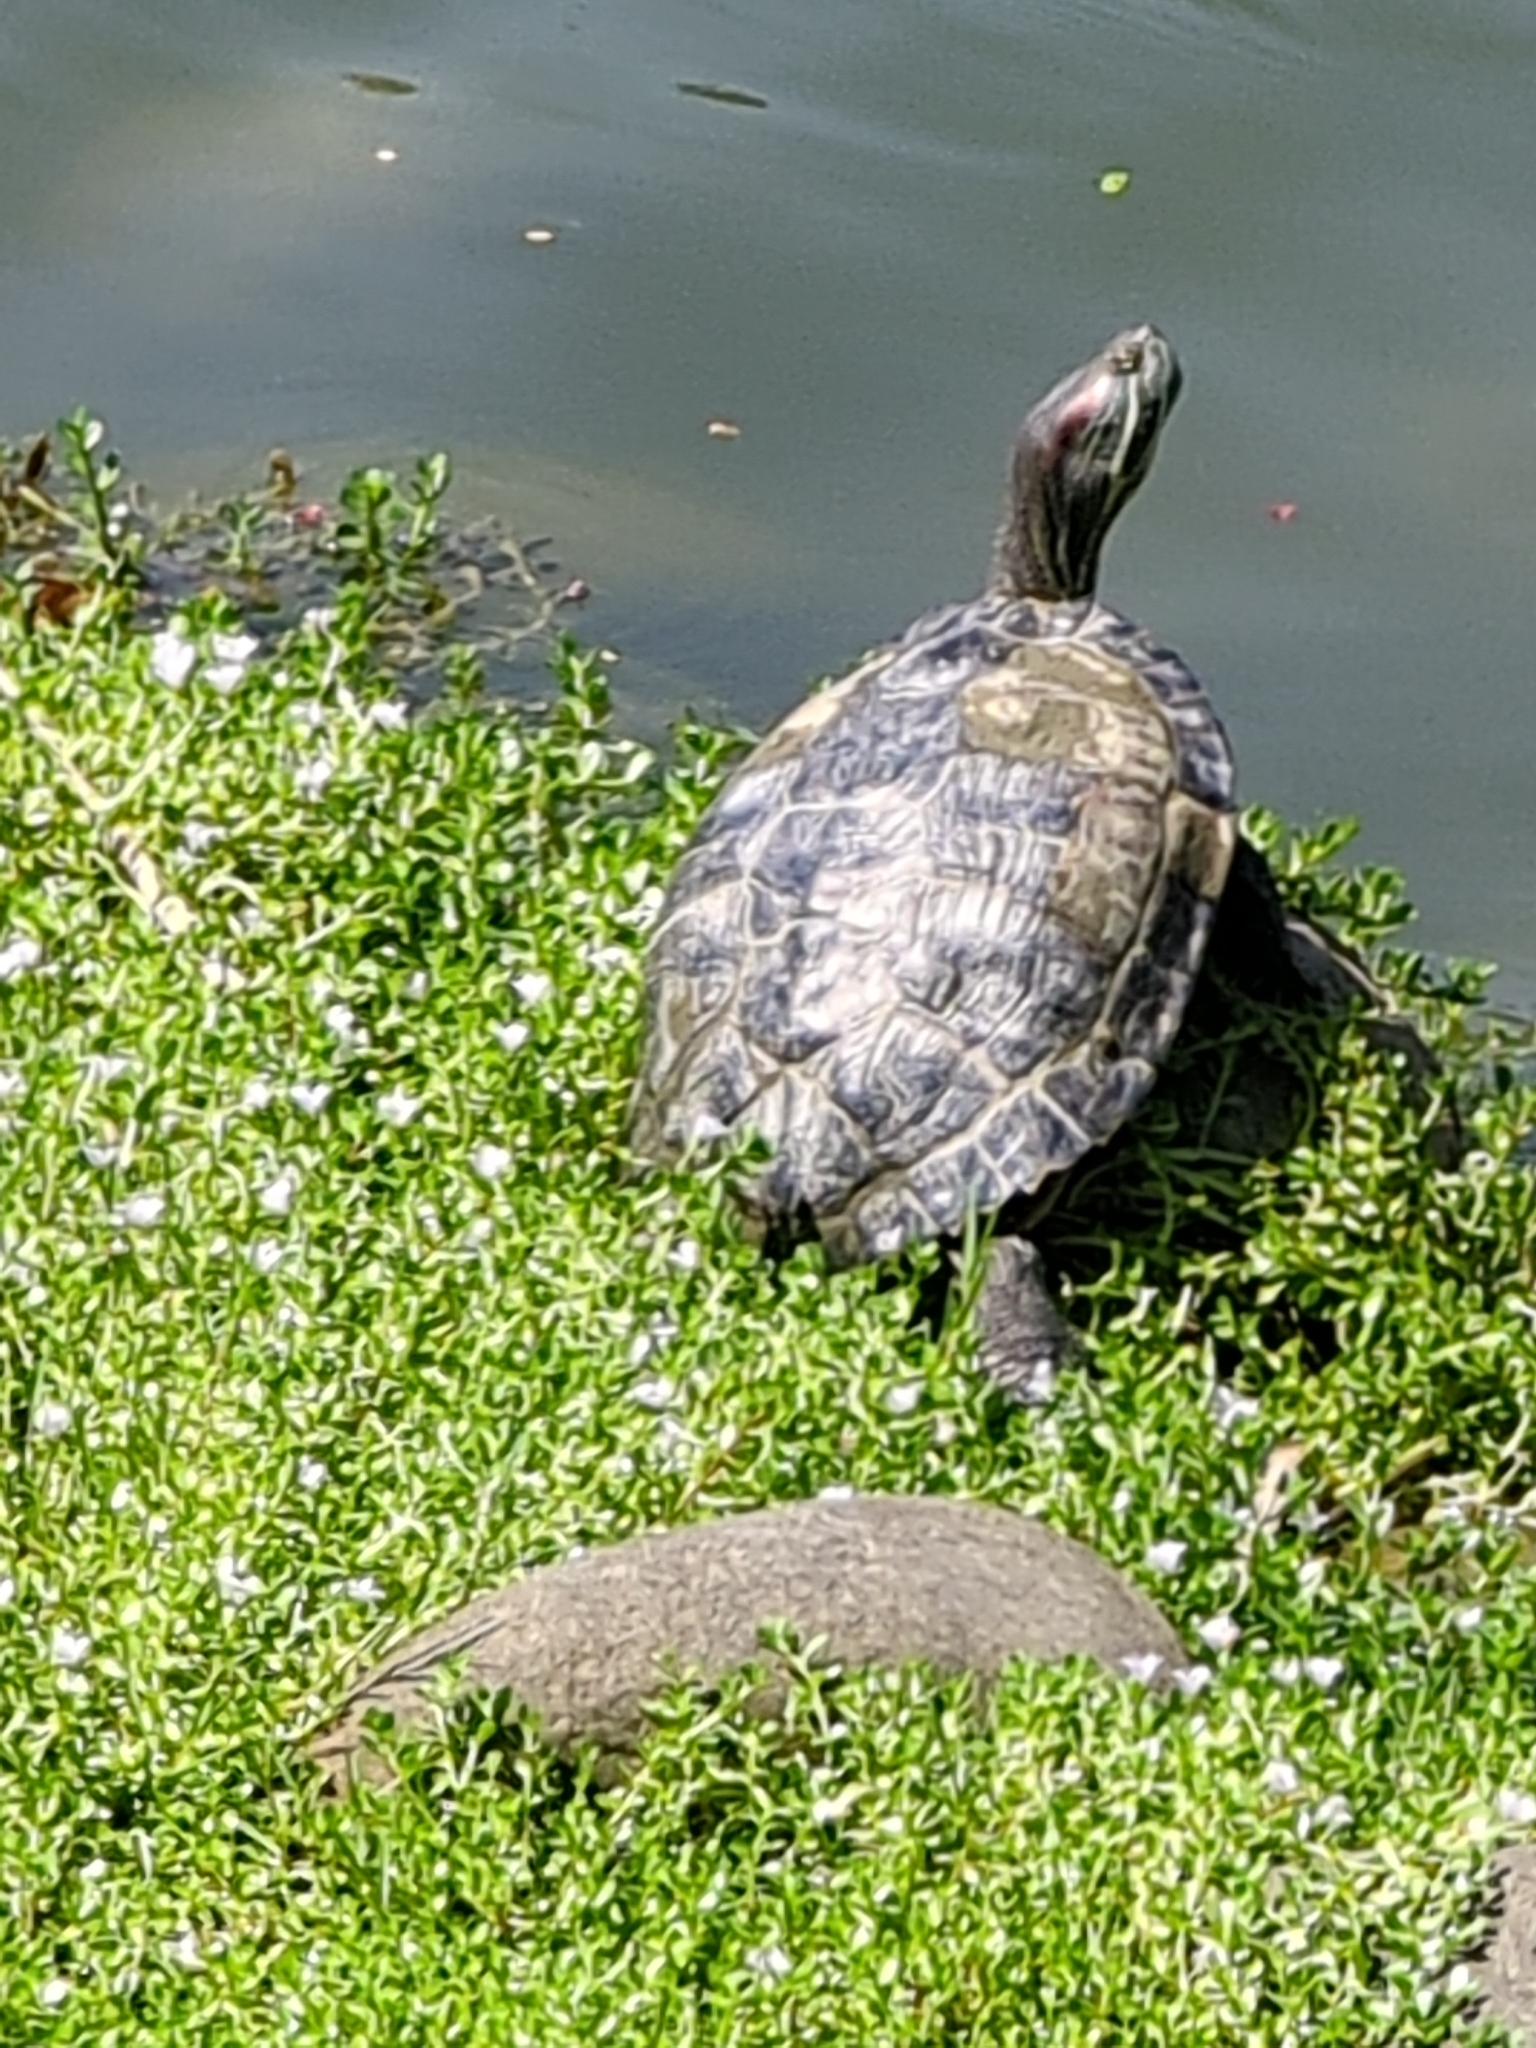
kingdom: Animalia
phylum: Chordata
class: Testudines
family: Emydidae
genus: Trachemys
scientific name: Trachemys scripta
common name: Slider
